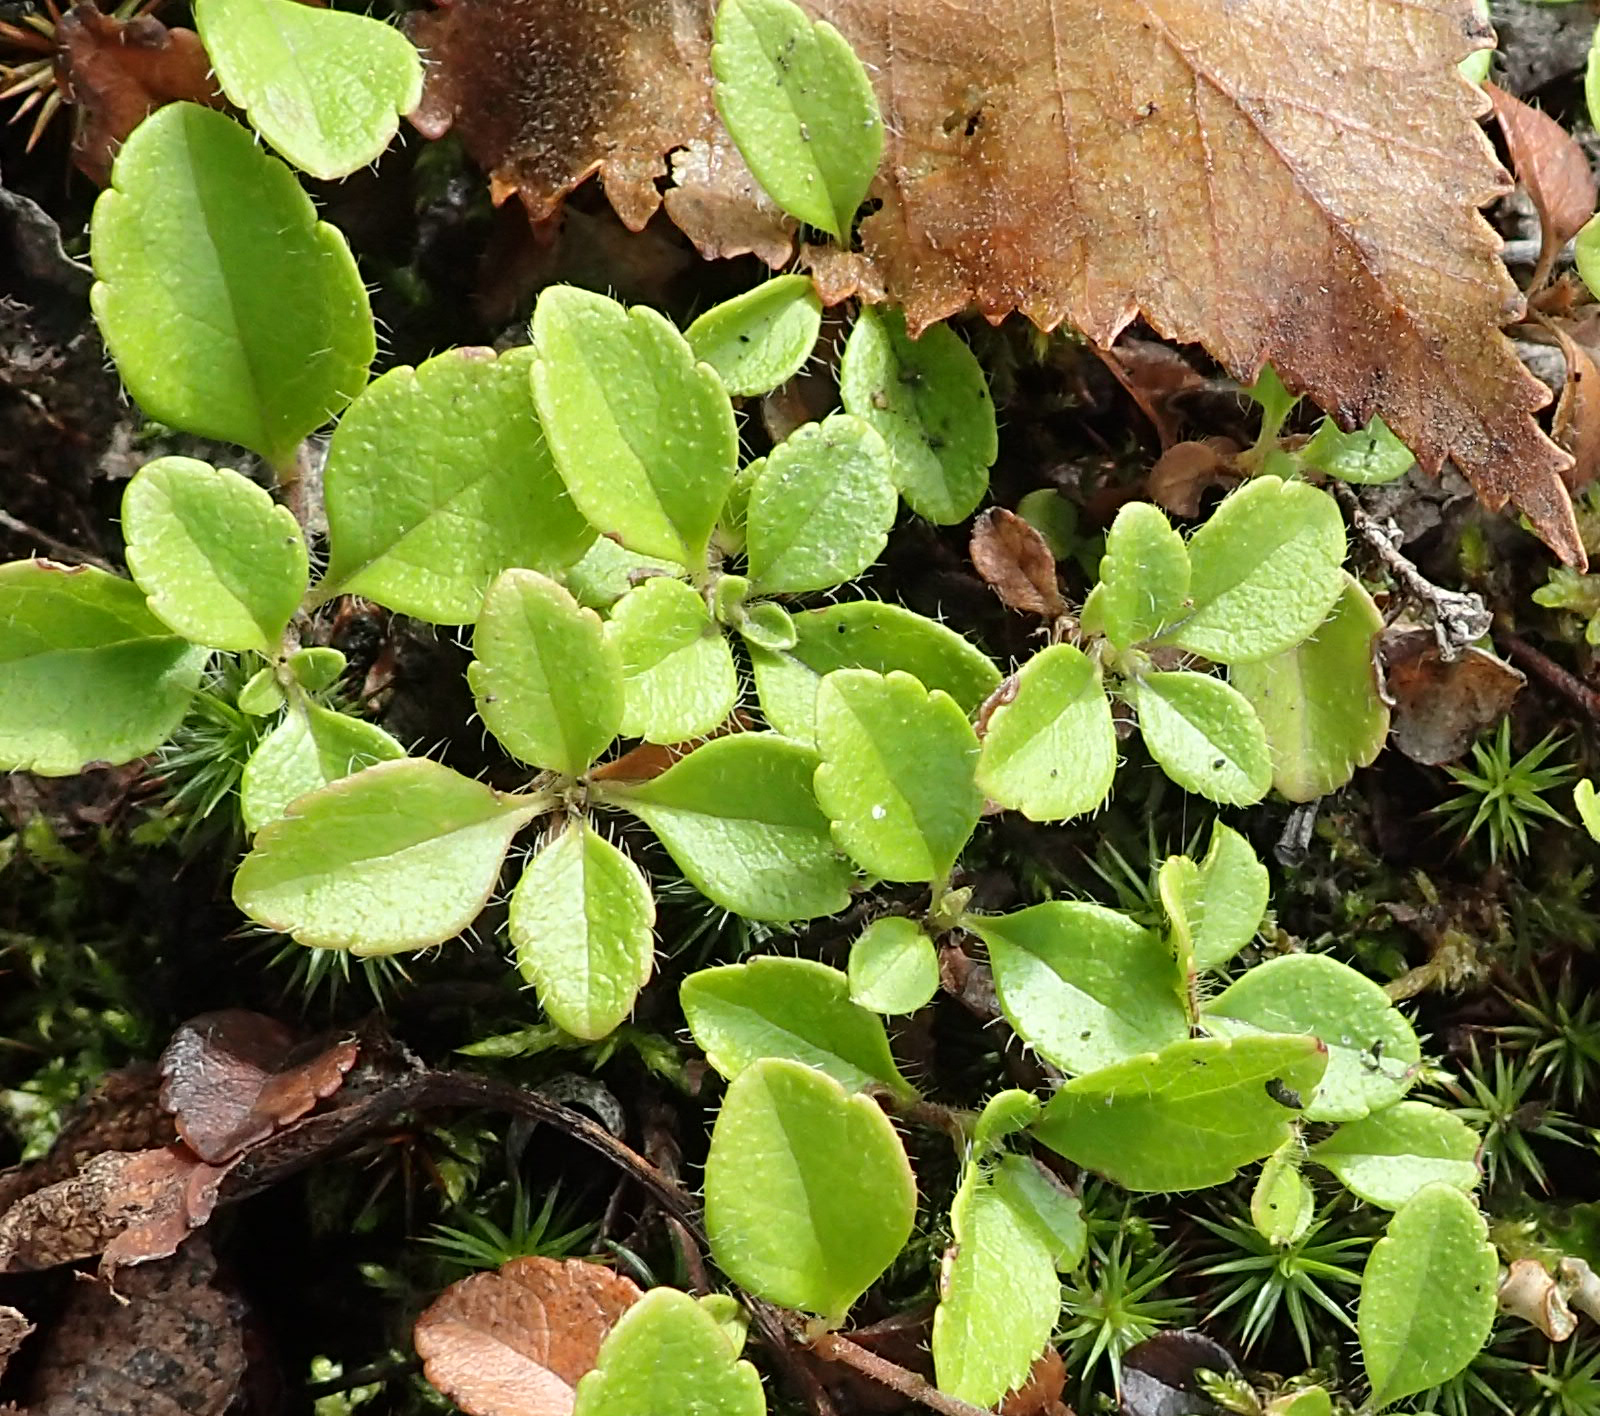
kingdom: Plantae
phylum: Tracheophyta
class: Magnoliopsida
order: Dipsacales
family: Caprifoliaceae
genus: Linnaea
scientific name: Linnaea borealis
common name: Twinflower
